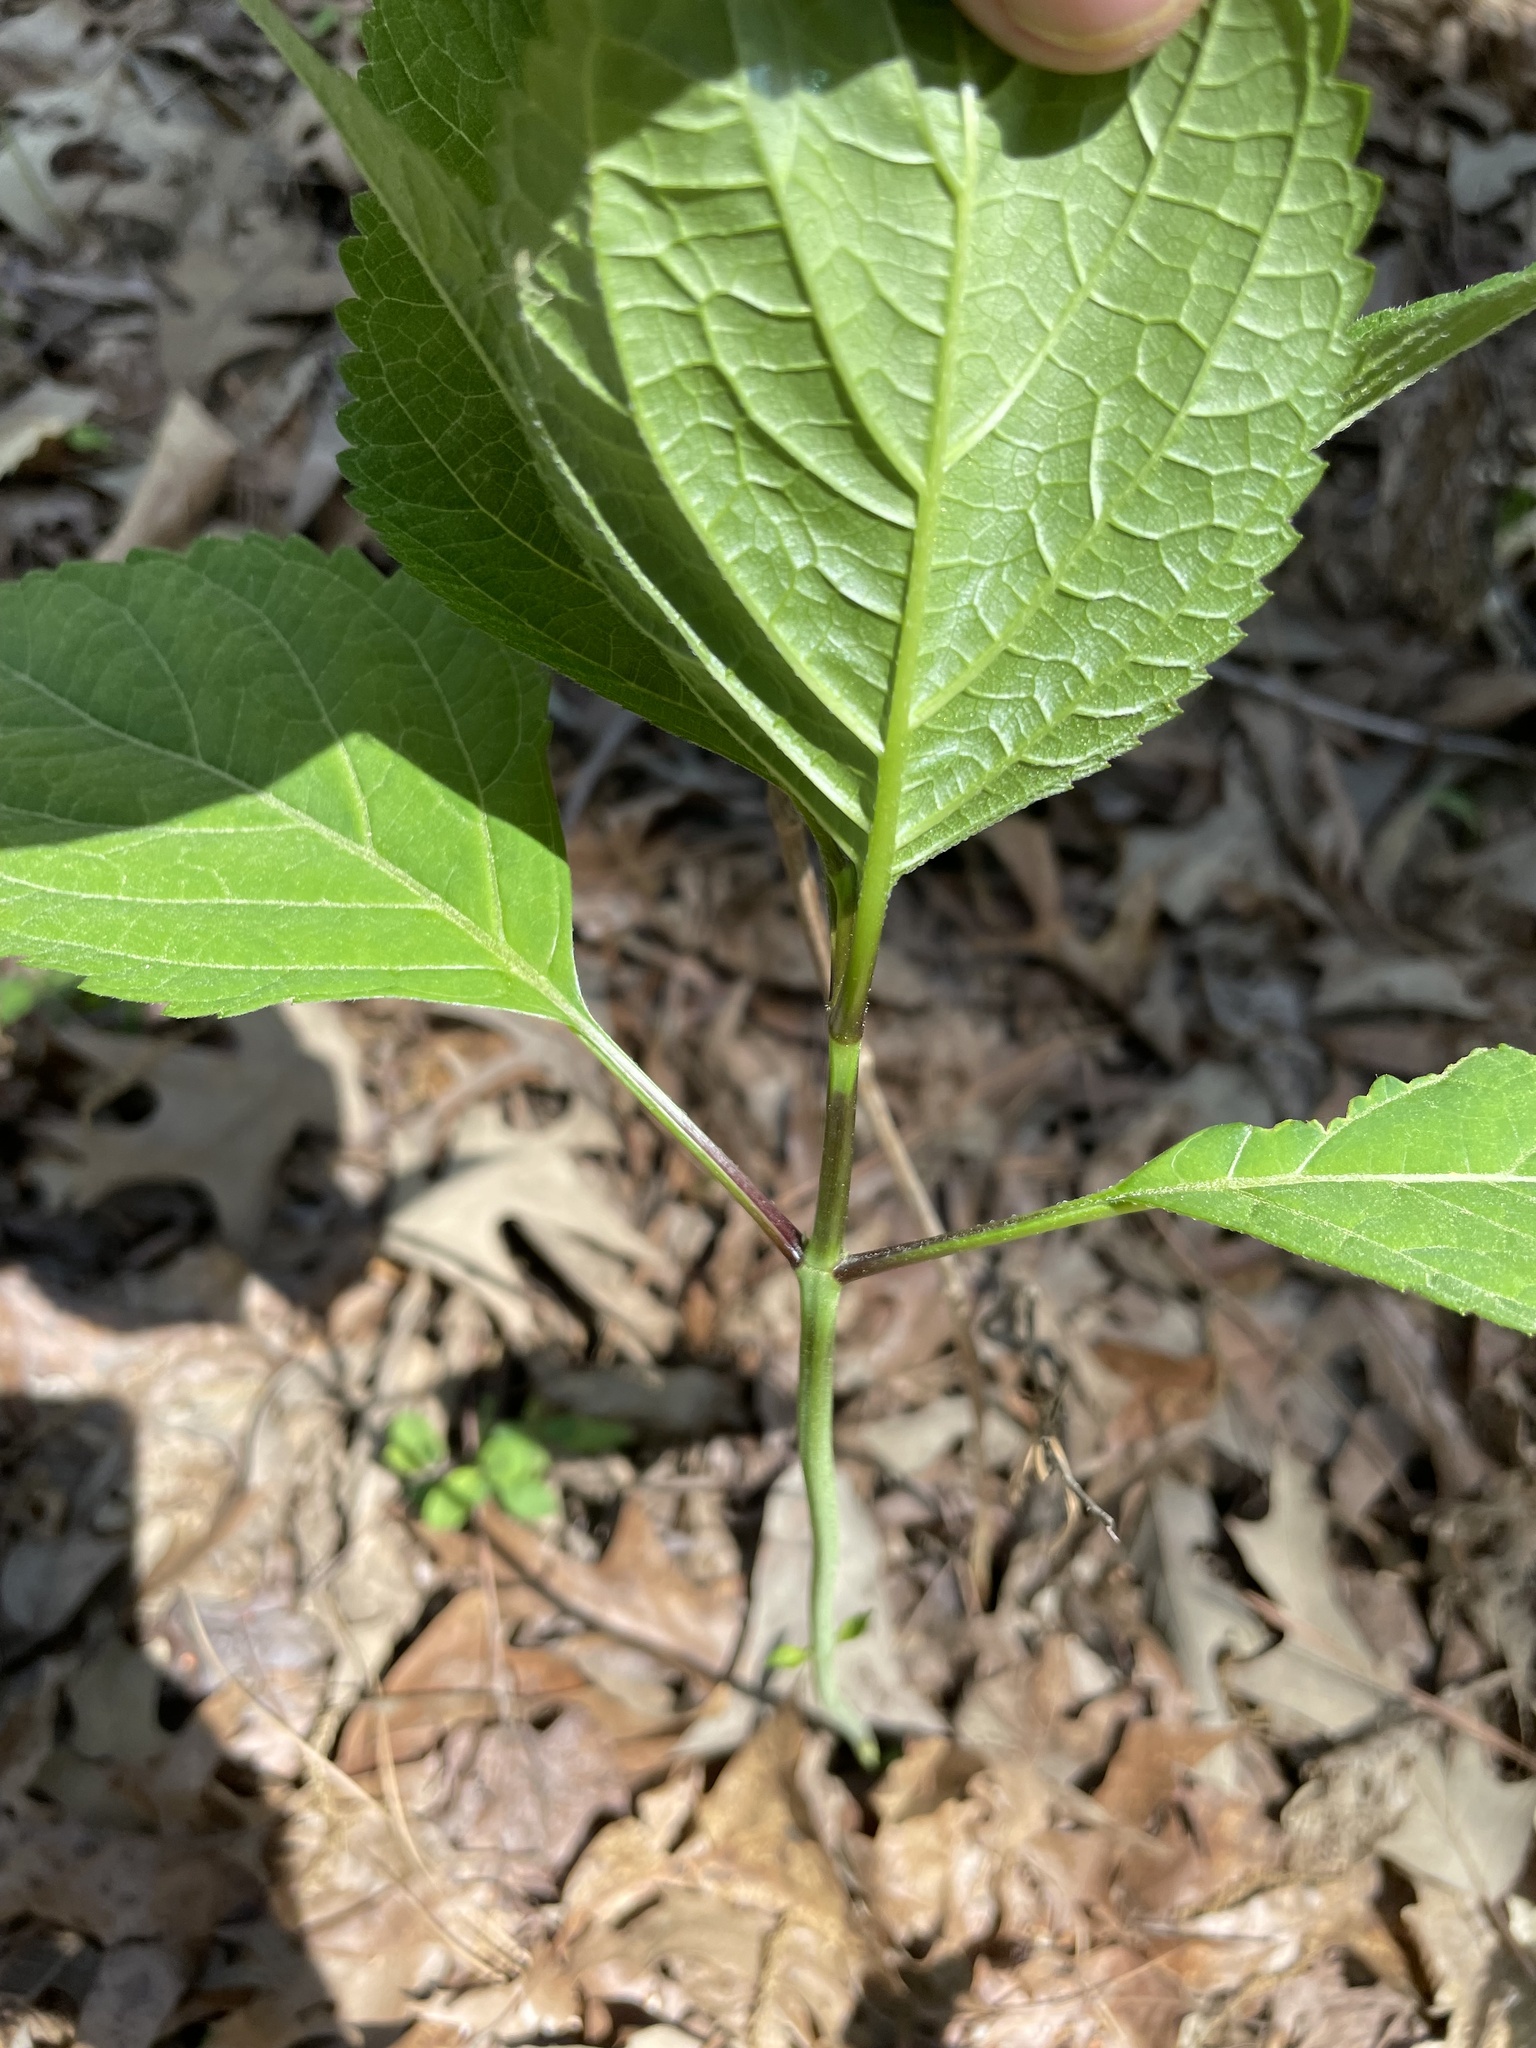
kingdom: Plantae
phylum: Tracheophyta
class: Magnoliopsida
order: Cornales
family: Hydrangeaceae
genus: Hydrangea
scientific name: Hydrangea arborescens
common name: Sevenbark
